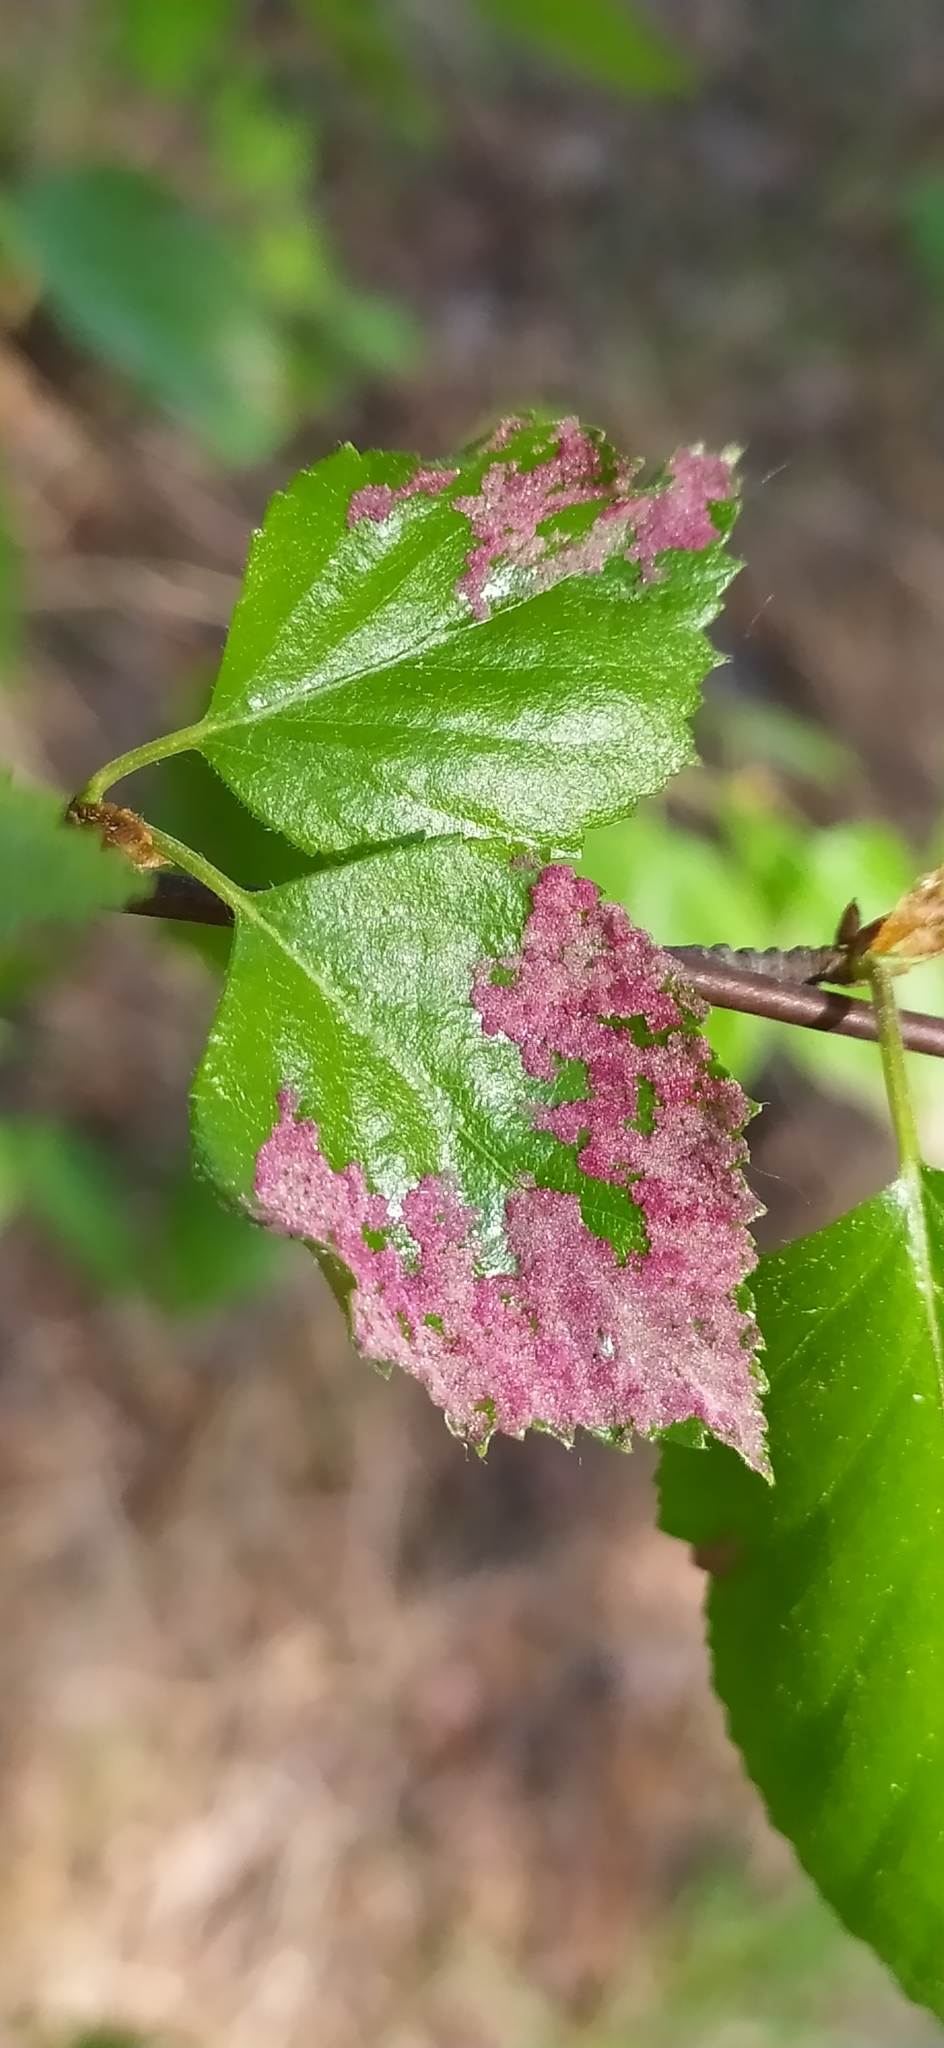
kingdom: Animalia
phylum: Arthropoda
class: Arachnida
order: Trombidiformes
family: Eriophyidae
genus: Acalitus
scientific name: Acalitus longisetosus
